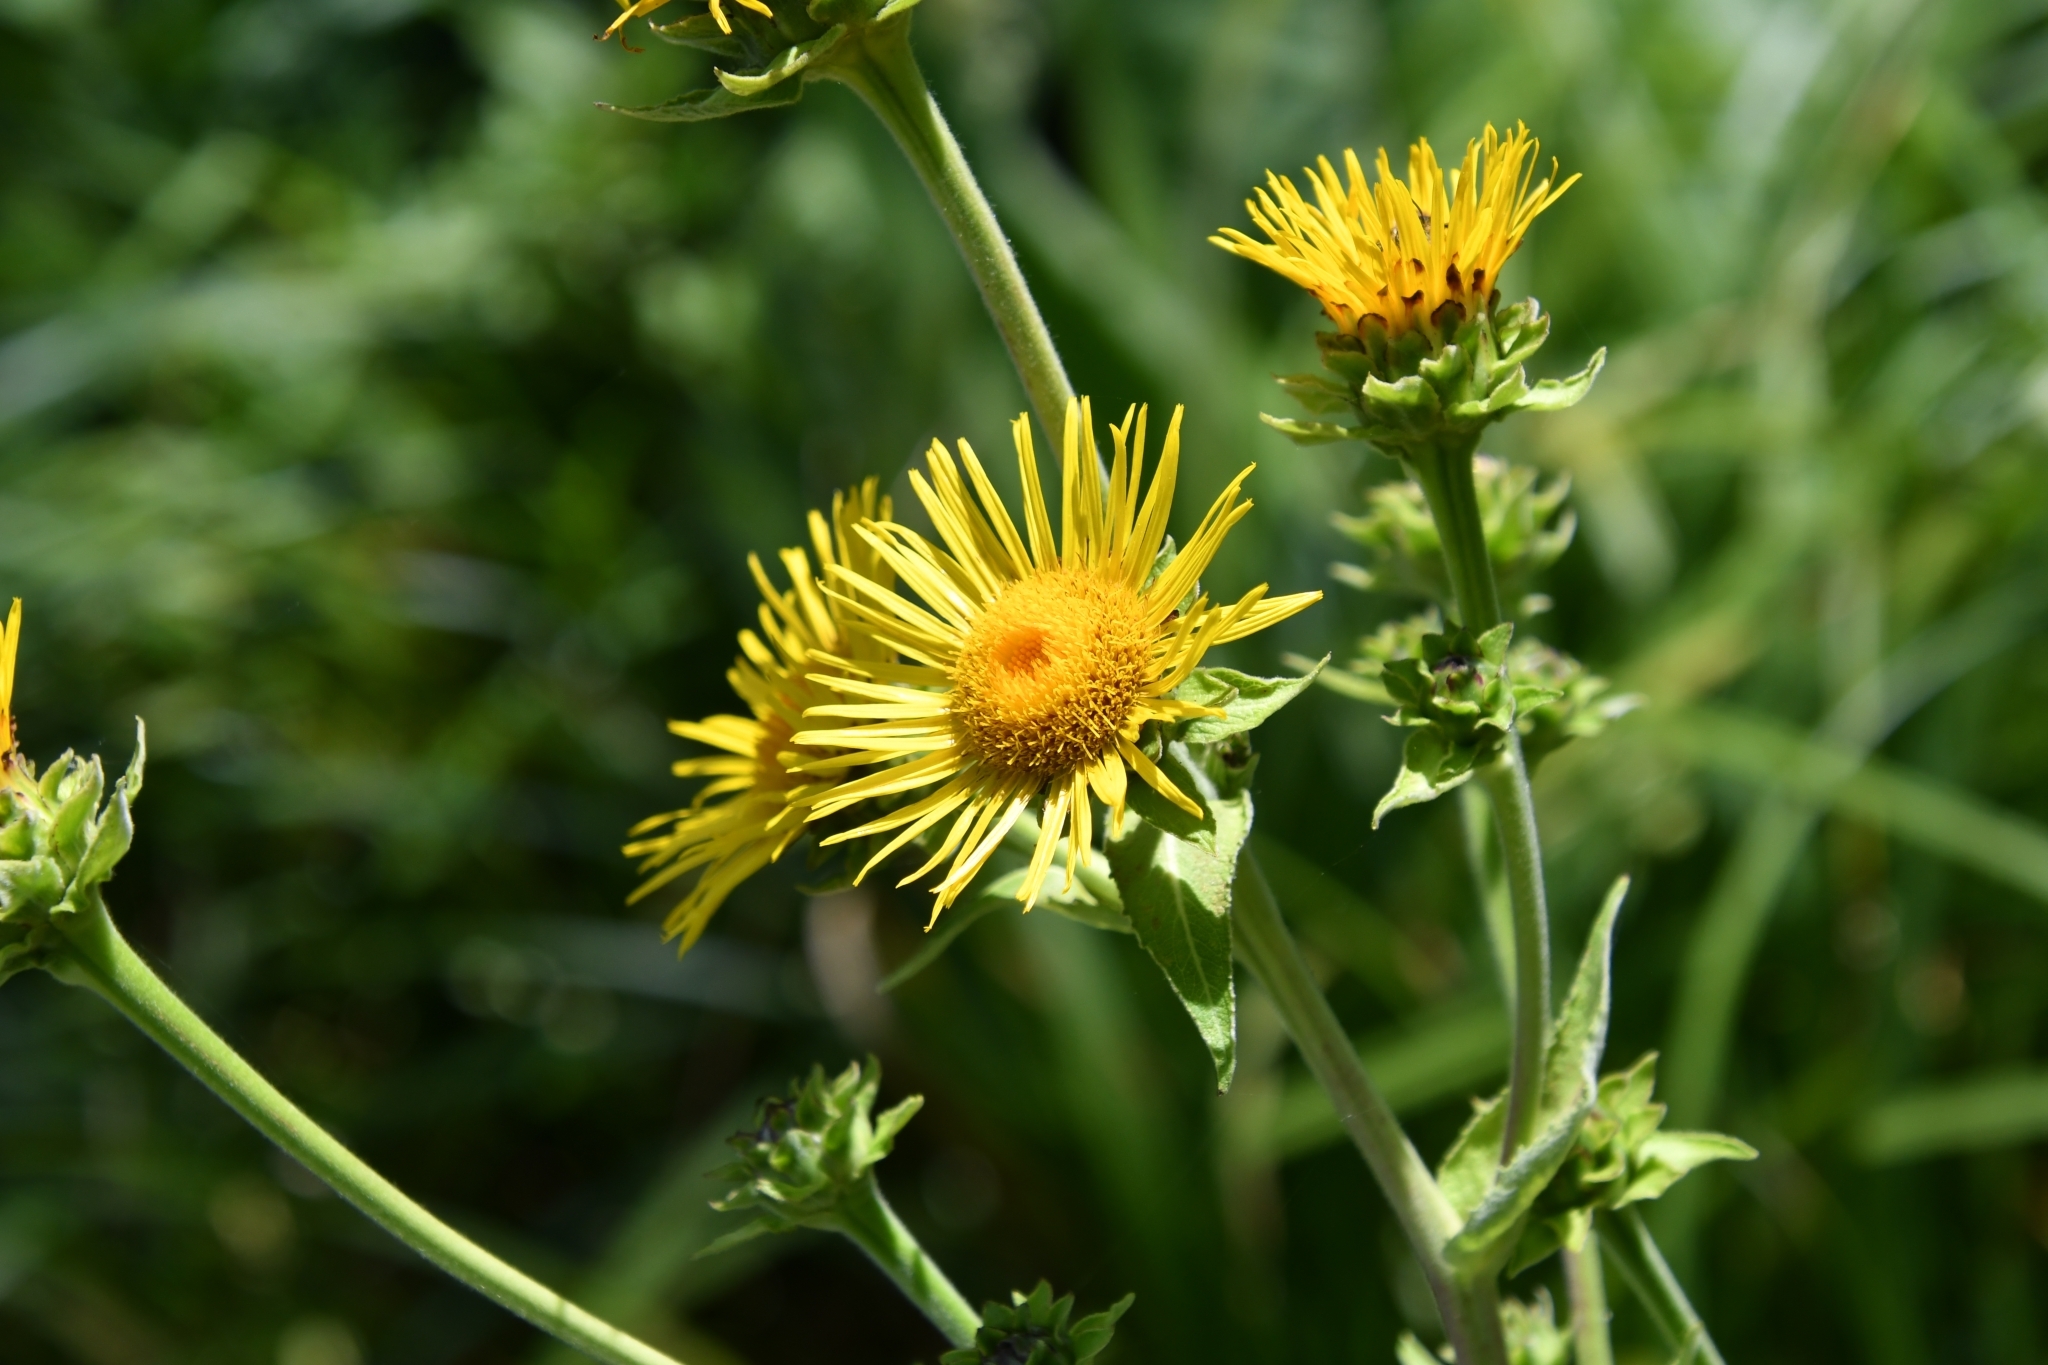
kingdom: Plantae
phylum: Tracheophyta
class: Magnoliopsida
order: Asterales
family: Asteraceae
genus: Inula
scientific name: Inula helenium
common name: Elecampane
